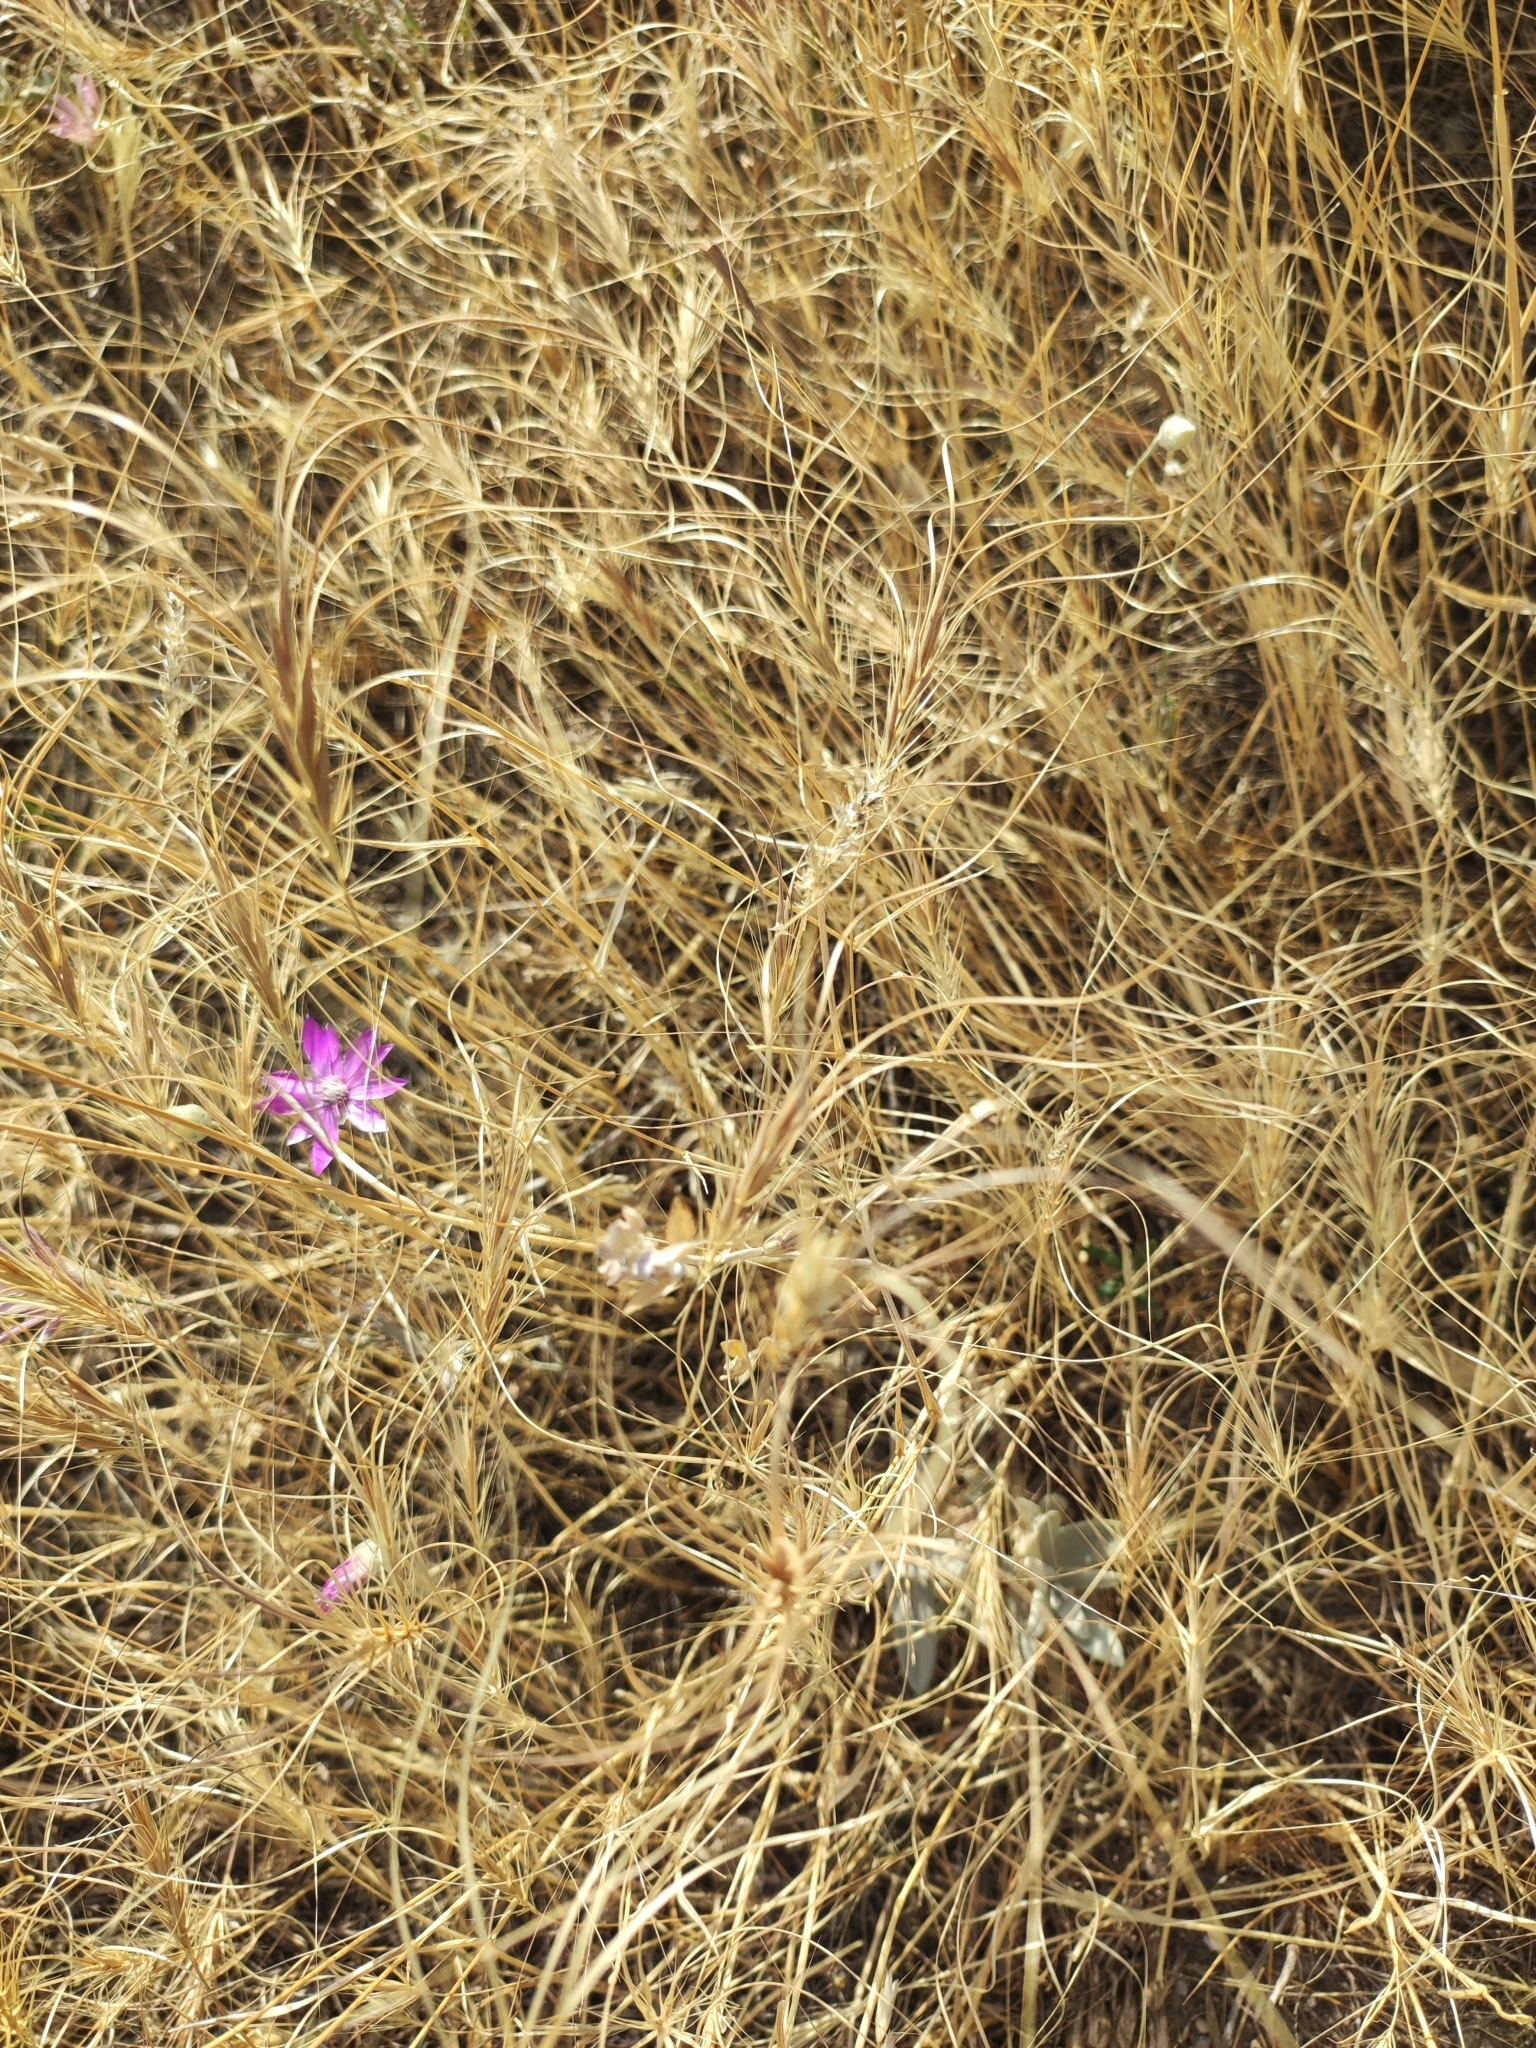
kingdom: Plantae
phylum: Tracheophyta
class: Liliopsida
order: Poales
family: Poaceae
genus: Taeniatherum
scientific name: Taeniatherum caput-medusae
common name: Medusahead
